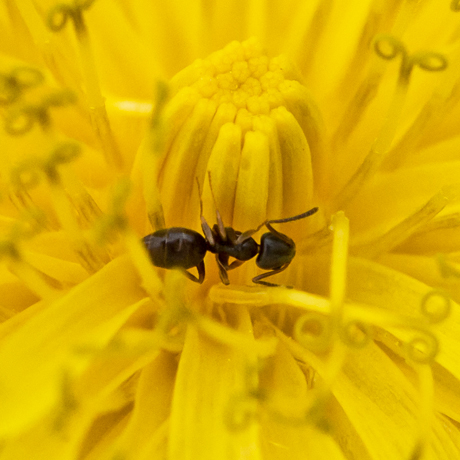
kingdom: Animalia
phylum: Arthropoda
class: Insecta
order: Hymenoptera
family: Formicidae
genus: Tapinoma
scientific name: Tapinoma sessile
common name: Odorous house ant
